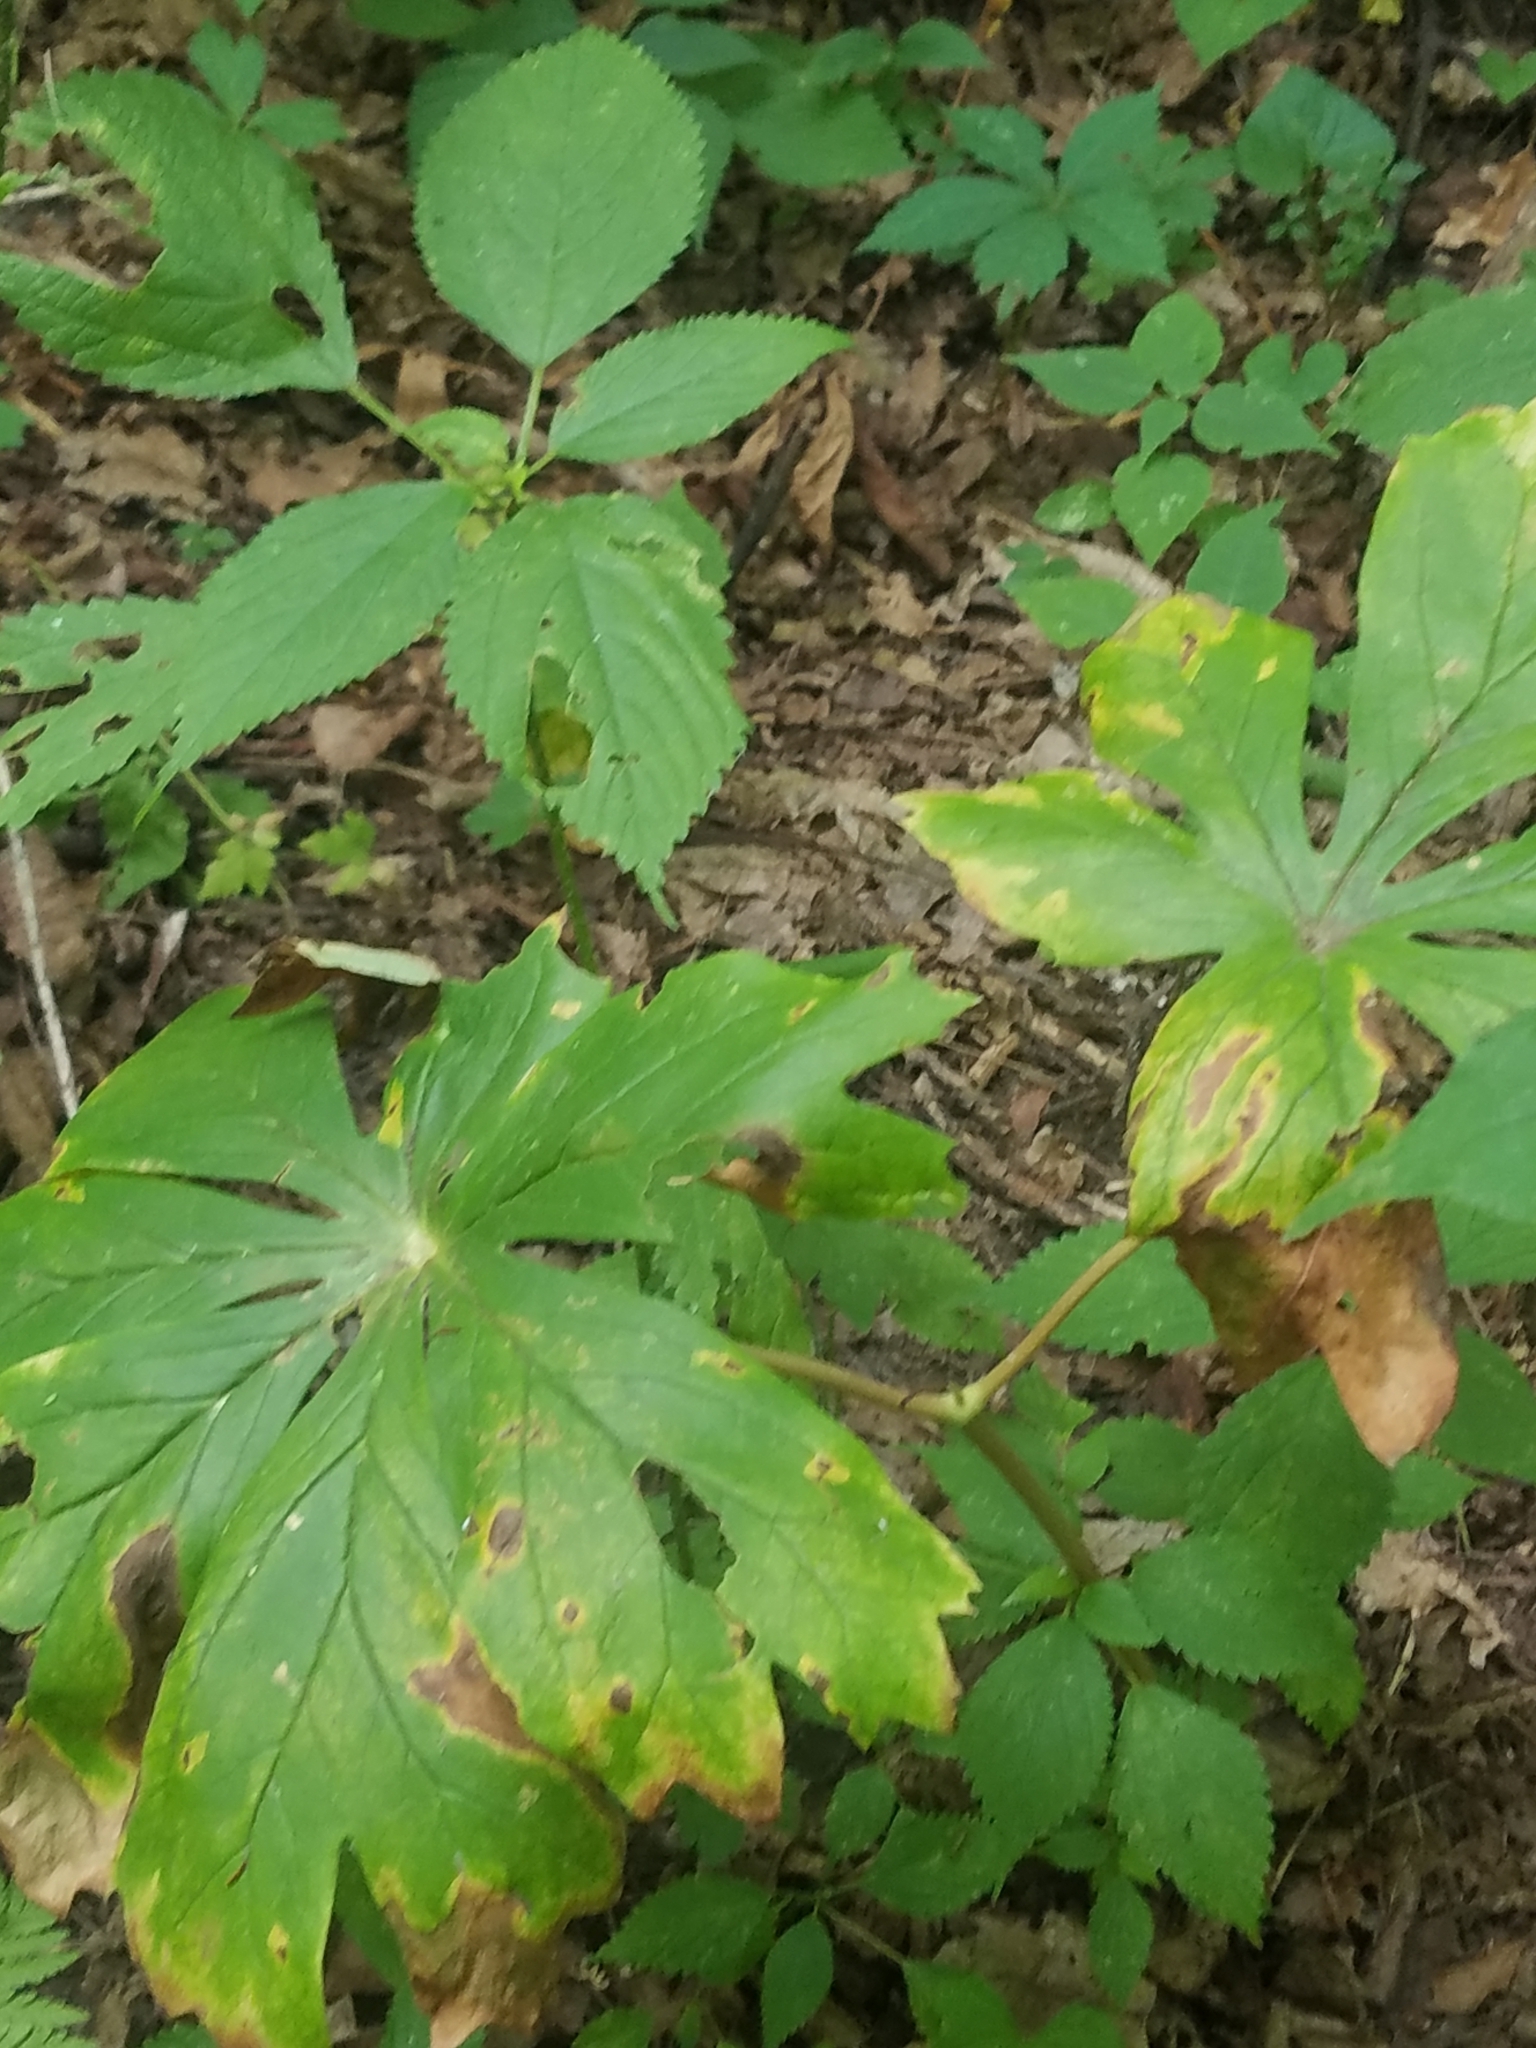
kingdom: Plantae
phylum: Tracheophyta
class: Magnoliopsida
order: Ranunculales
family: Berberidaceae
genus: Podophyllum
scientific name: Podophyllum peltatum
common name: Wild mandrake
